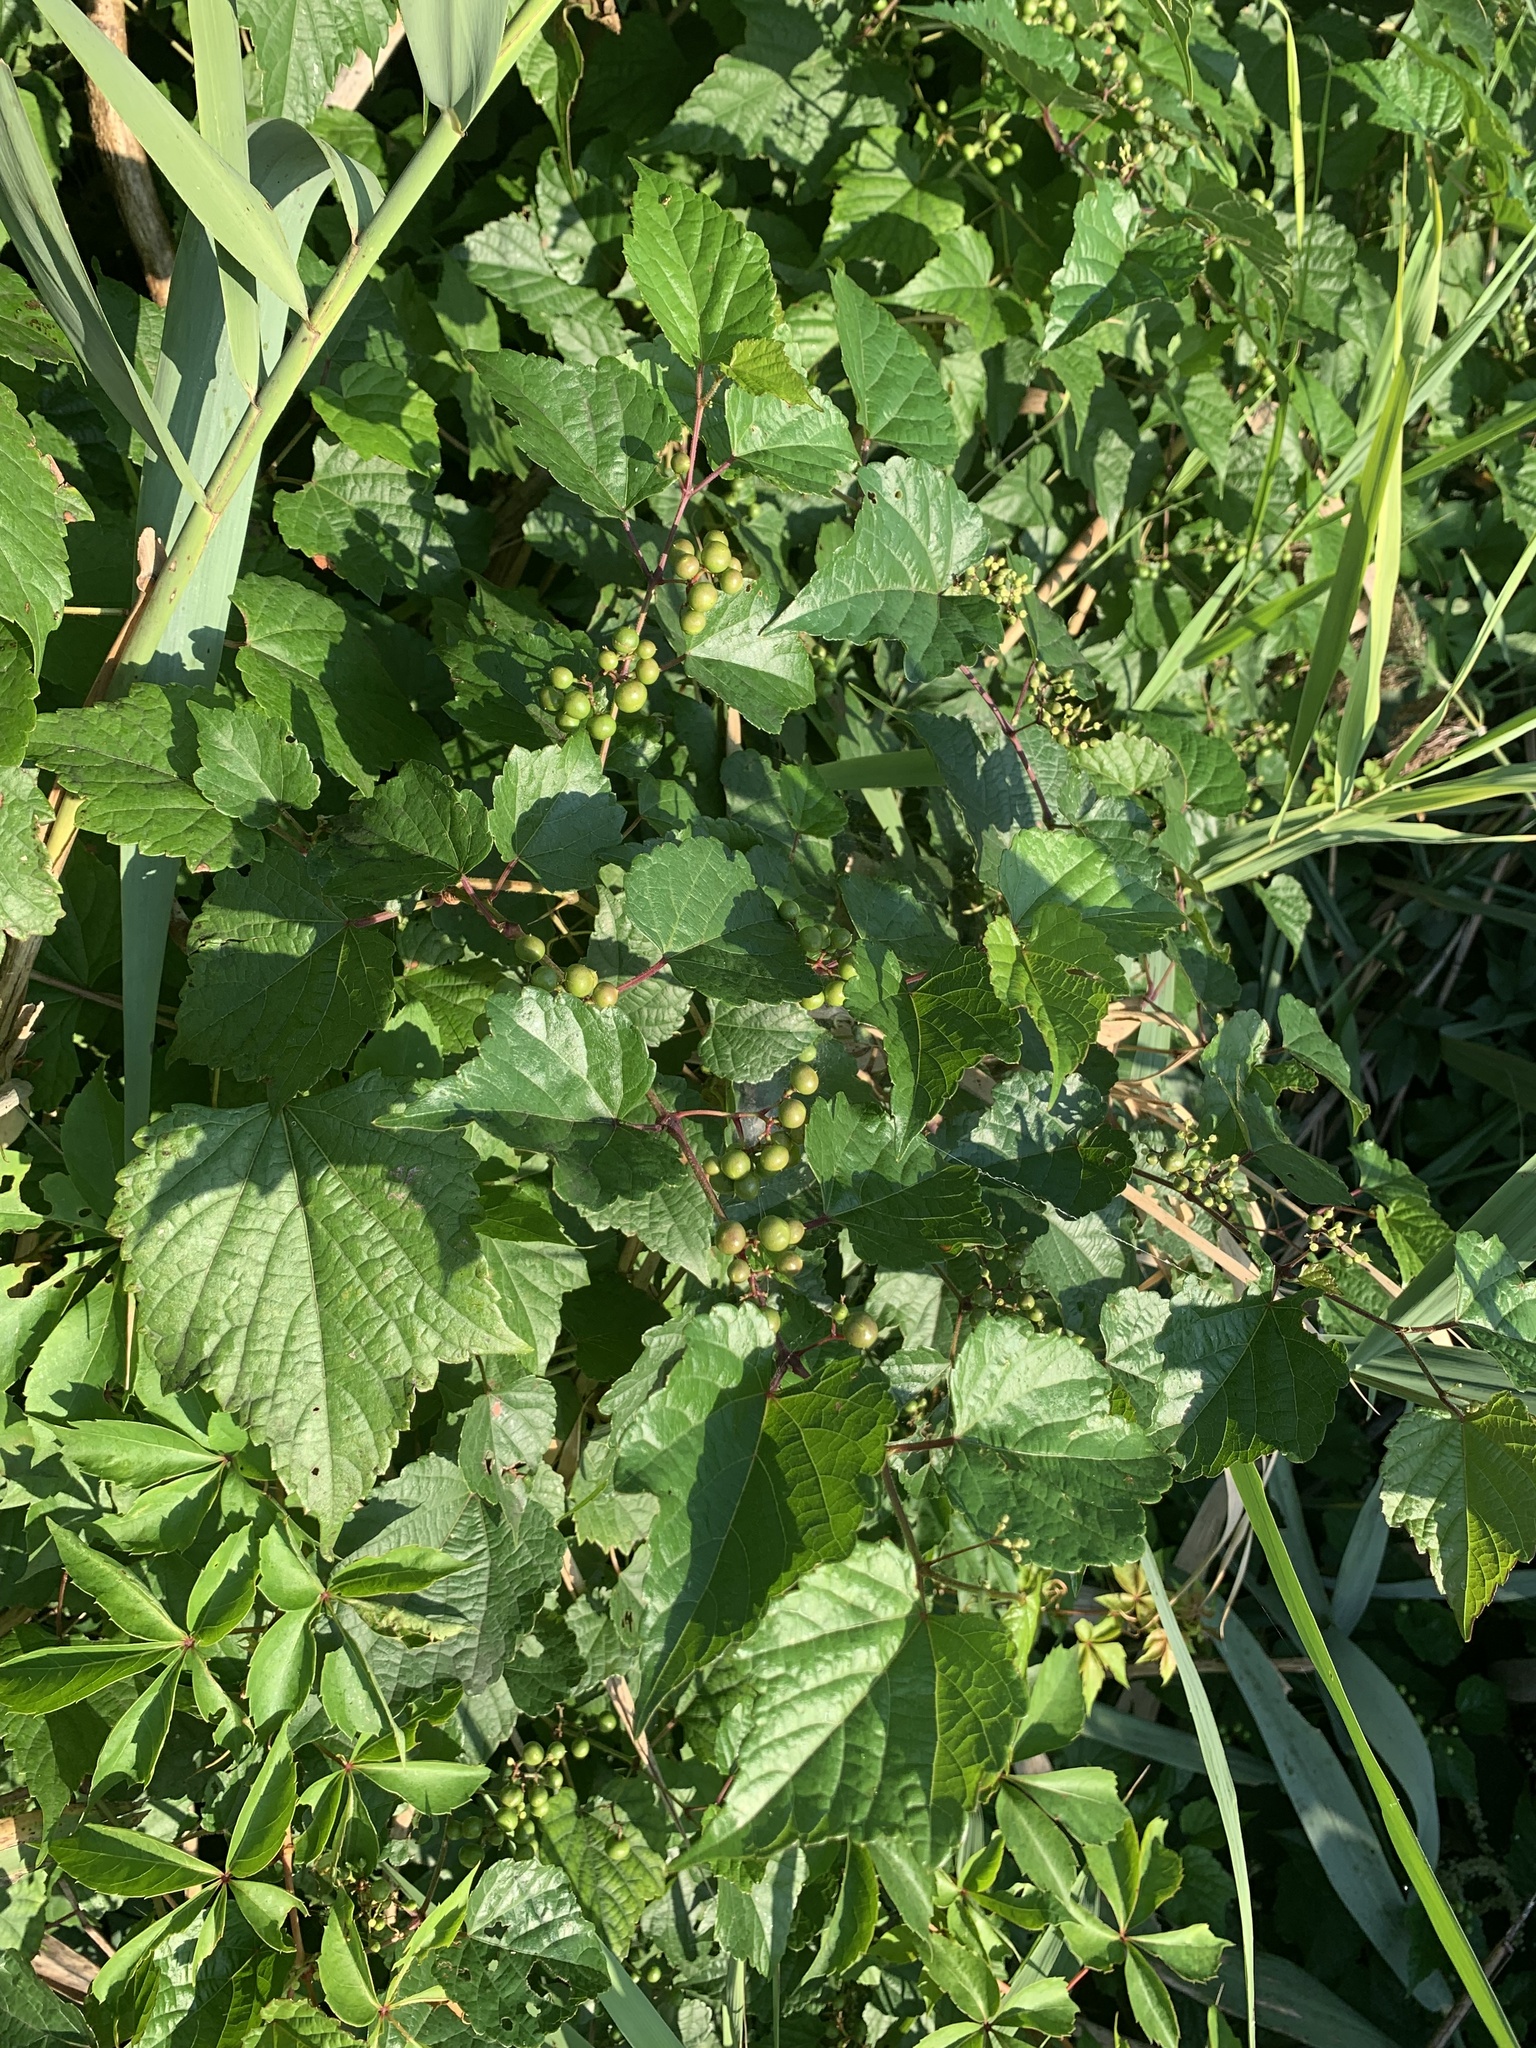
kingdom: Plantae
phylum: Tracheophyta
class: Magnoliopsida
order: Vitales
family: Vitaceae
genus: Ampelopsis
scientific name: Ampelopsis glandulosa
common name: Amur peppervine
